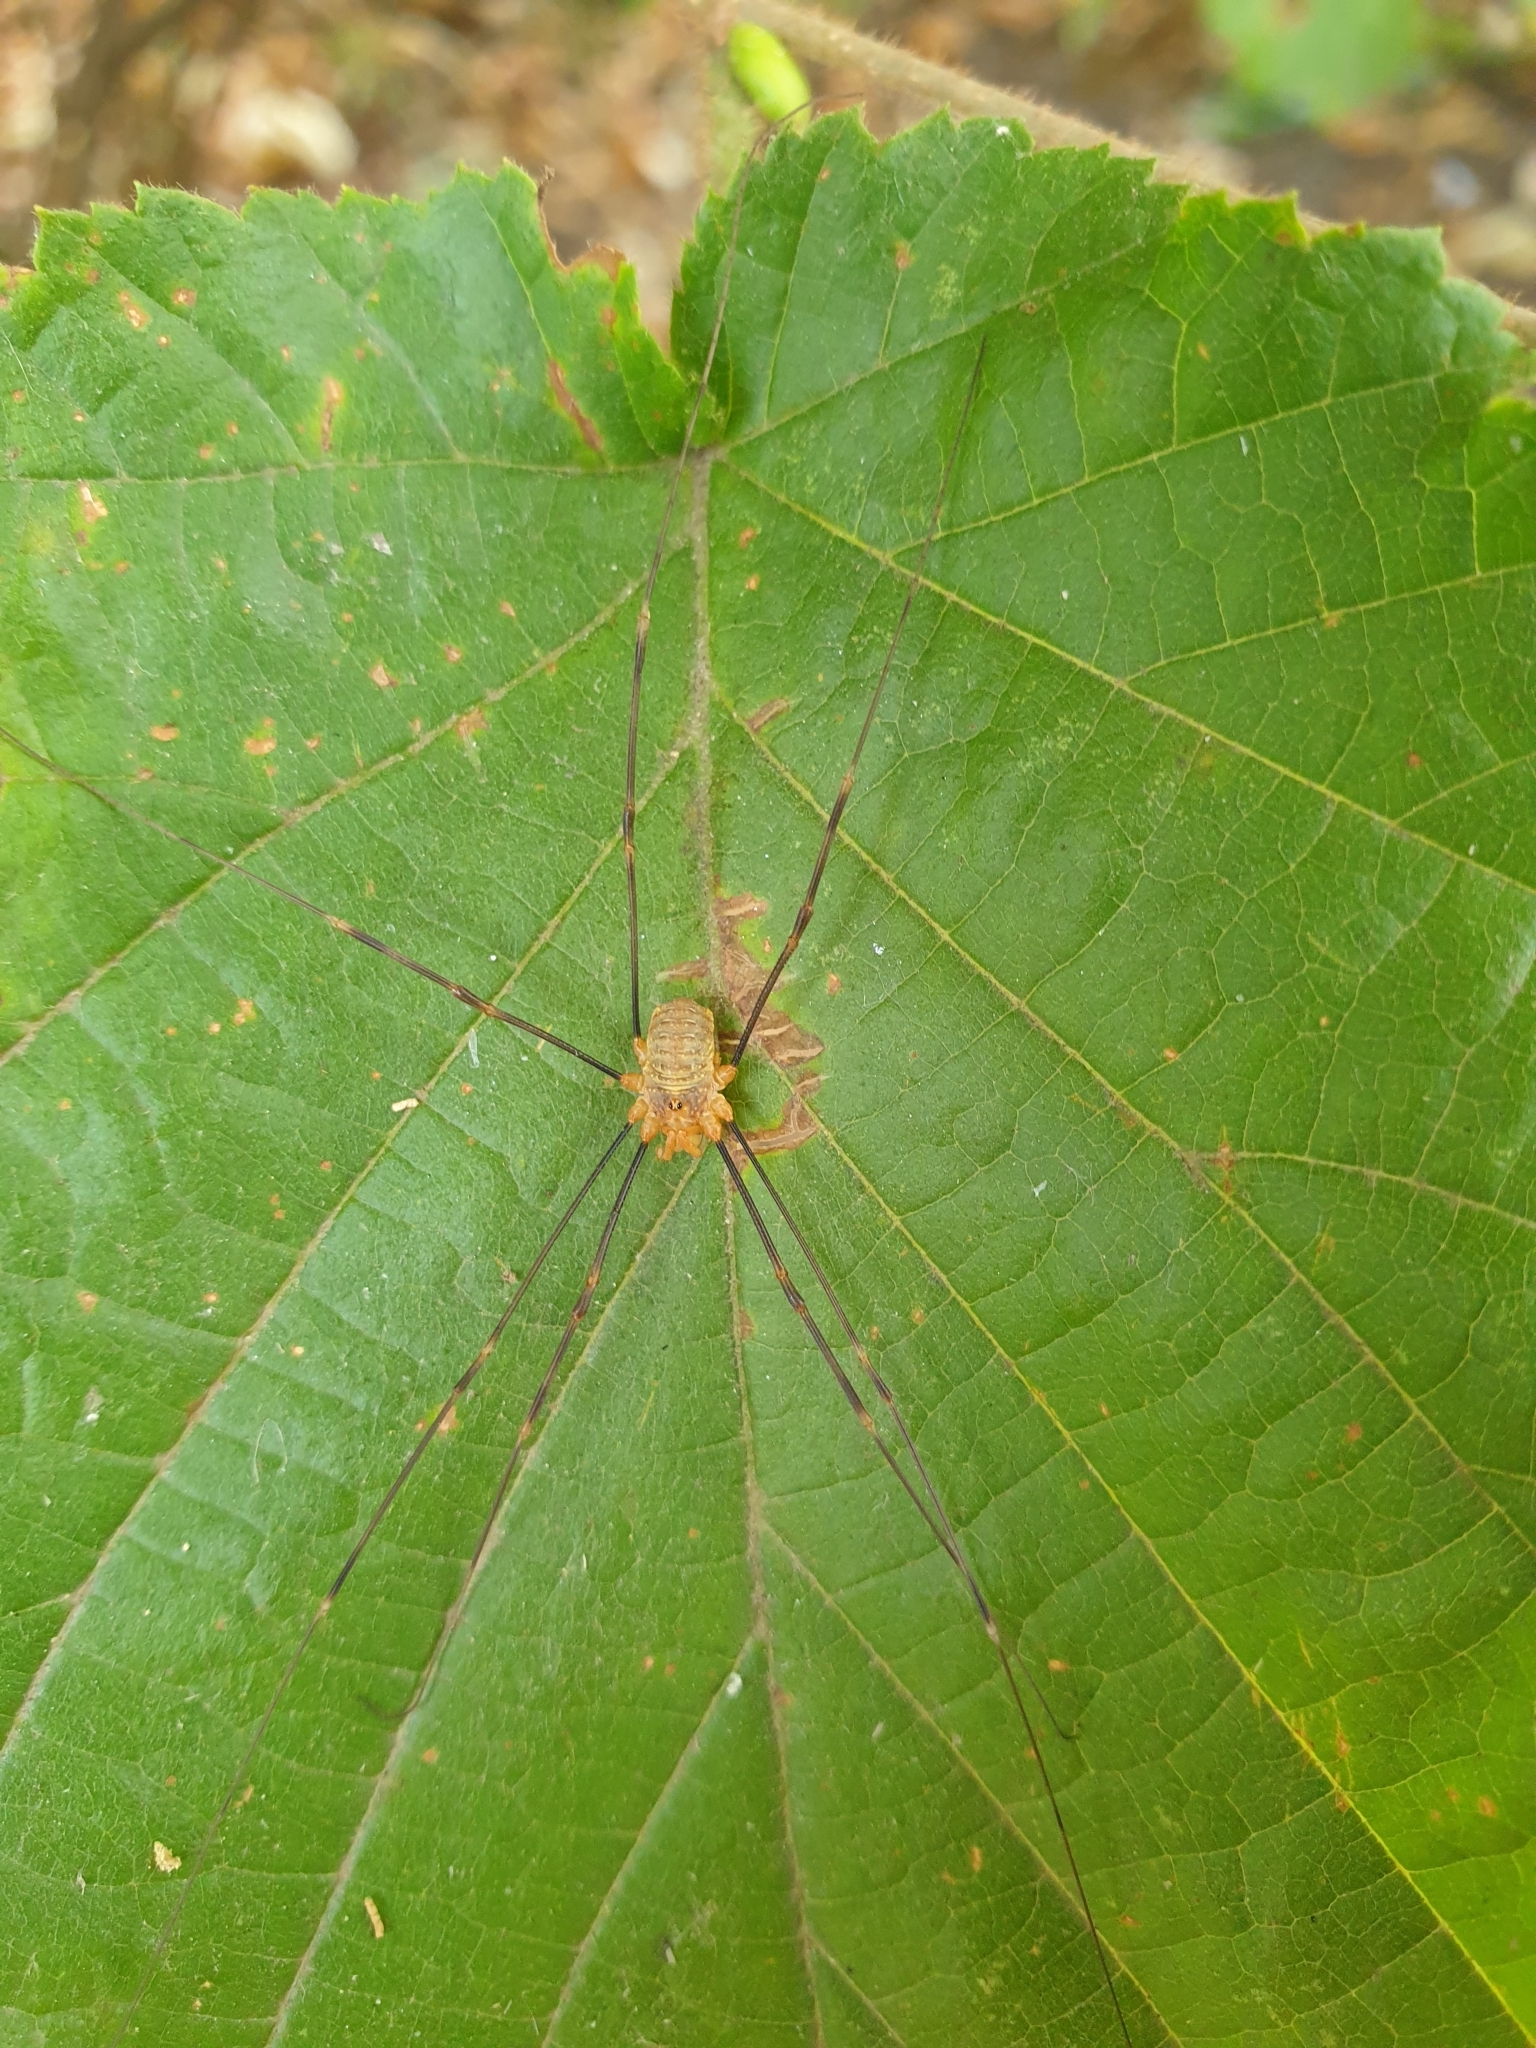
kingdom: Animalia
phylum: Arthropoda
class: Arachnida
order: Opiliones
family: Phalangiidae
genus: Opilio
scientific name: Opilio canestrinii
